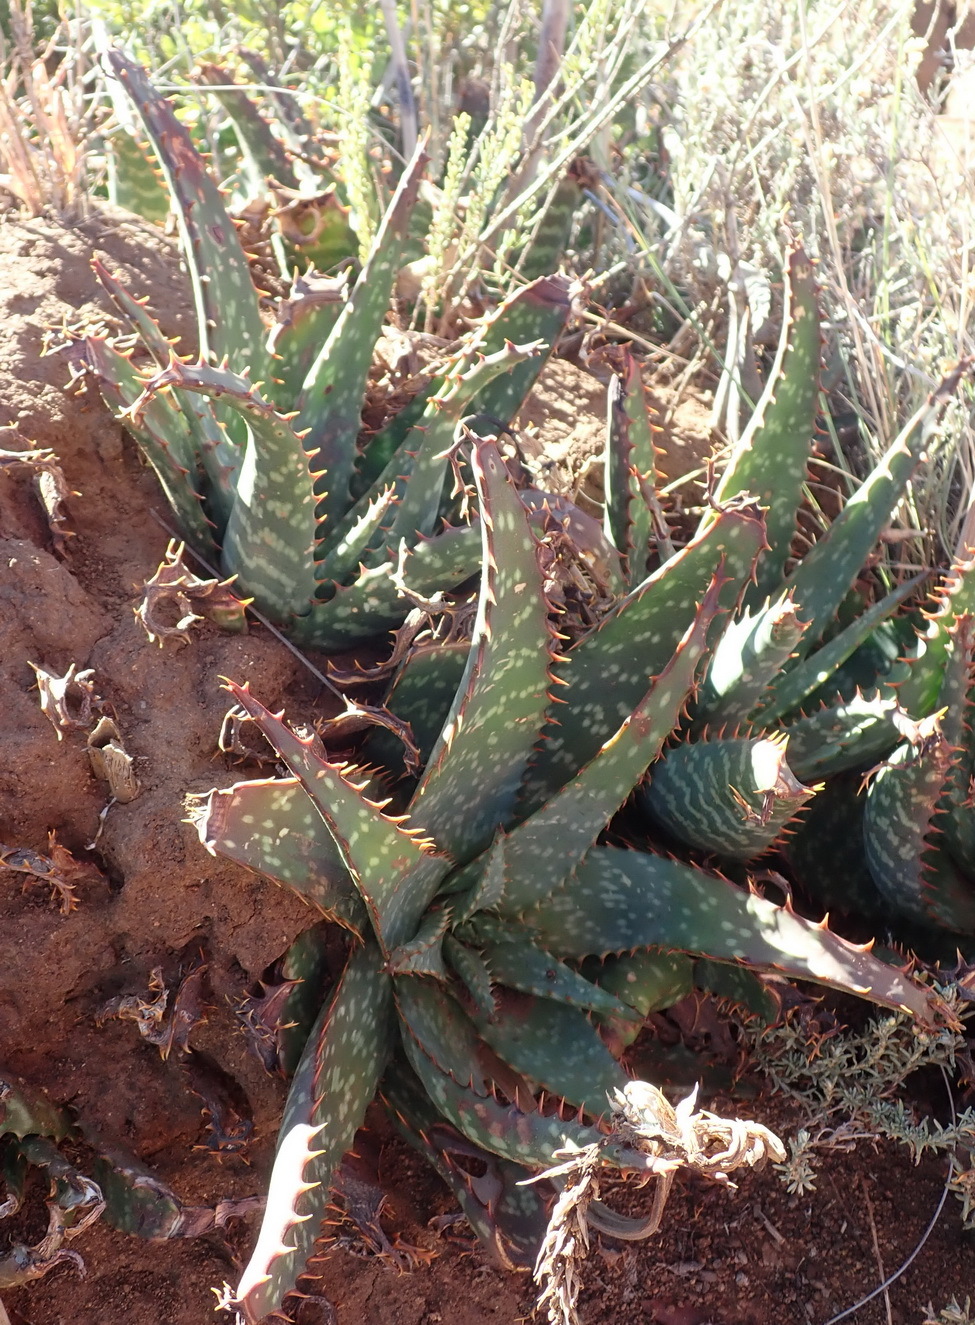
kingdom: Plantae
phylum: Tracheophyta
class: Liliopsida
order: Asparagales
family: Asphodelaceae
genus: Aloe
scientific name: Aloe grandidentata
